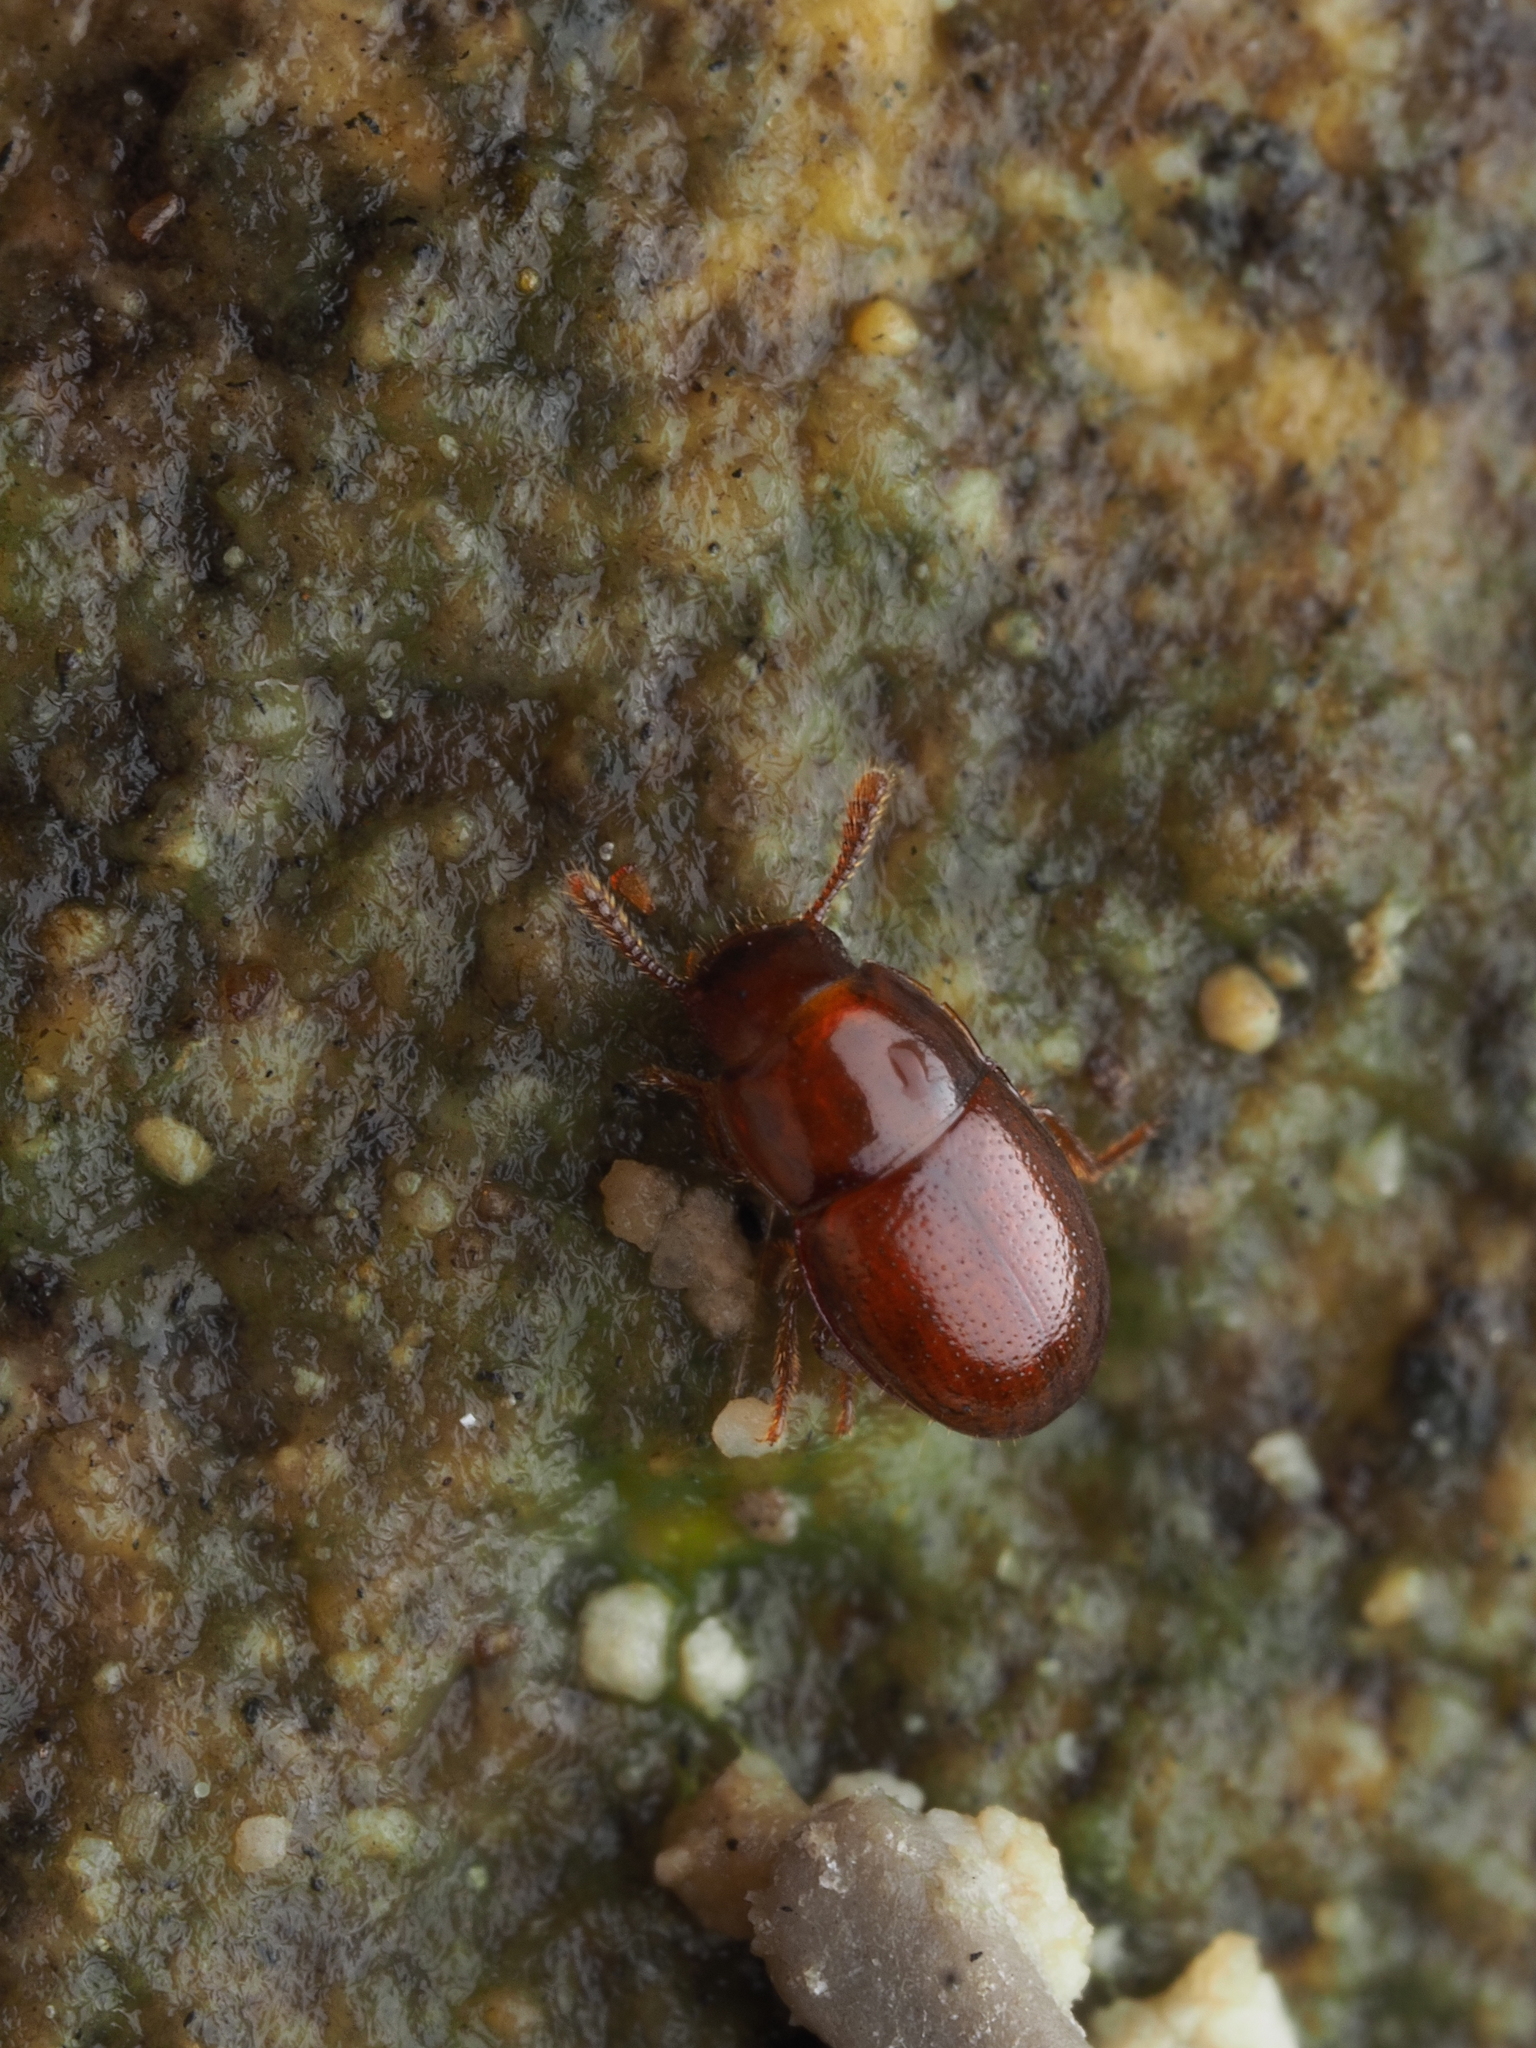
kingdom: Animalia
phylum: Arthropoda
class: Insecta
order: Coleoptera
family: Tenebrionidae
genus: Menimus
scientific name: Menimus caecus
